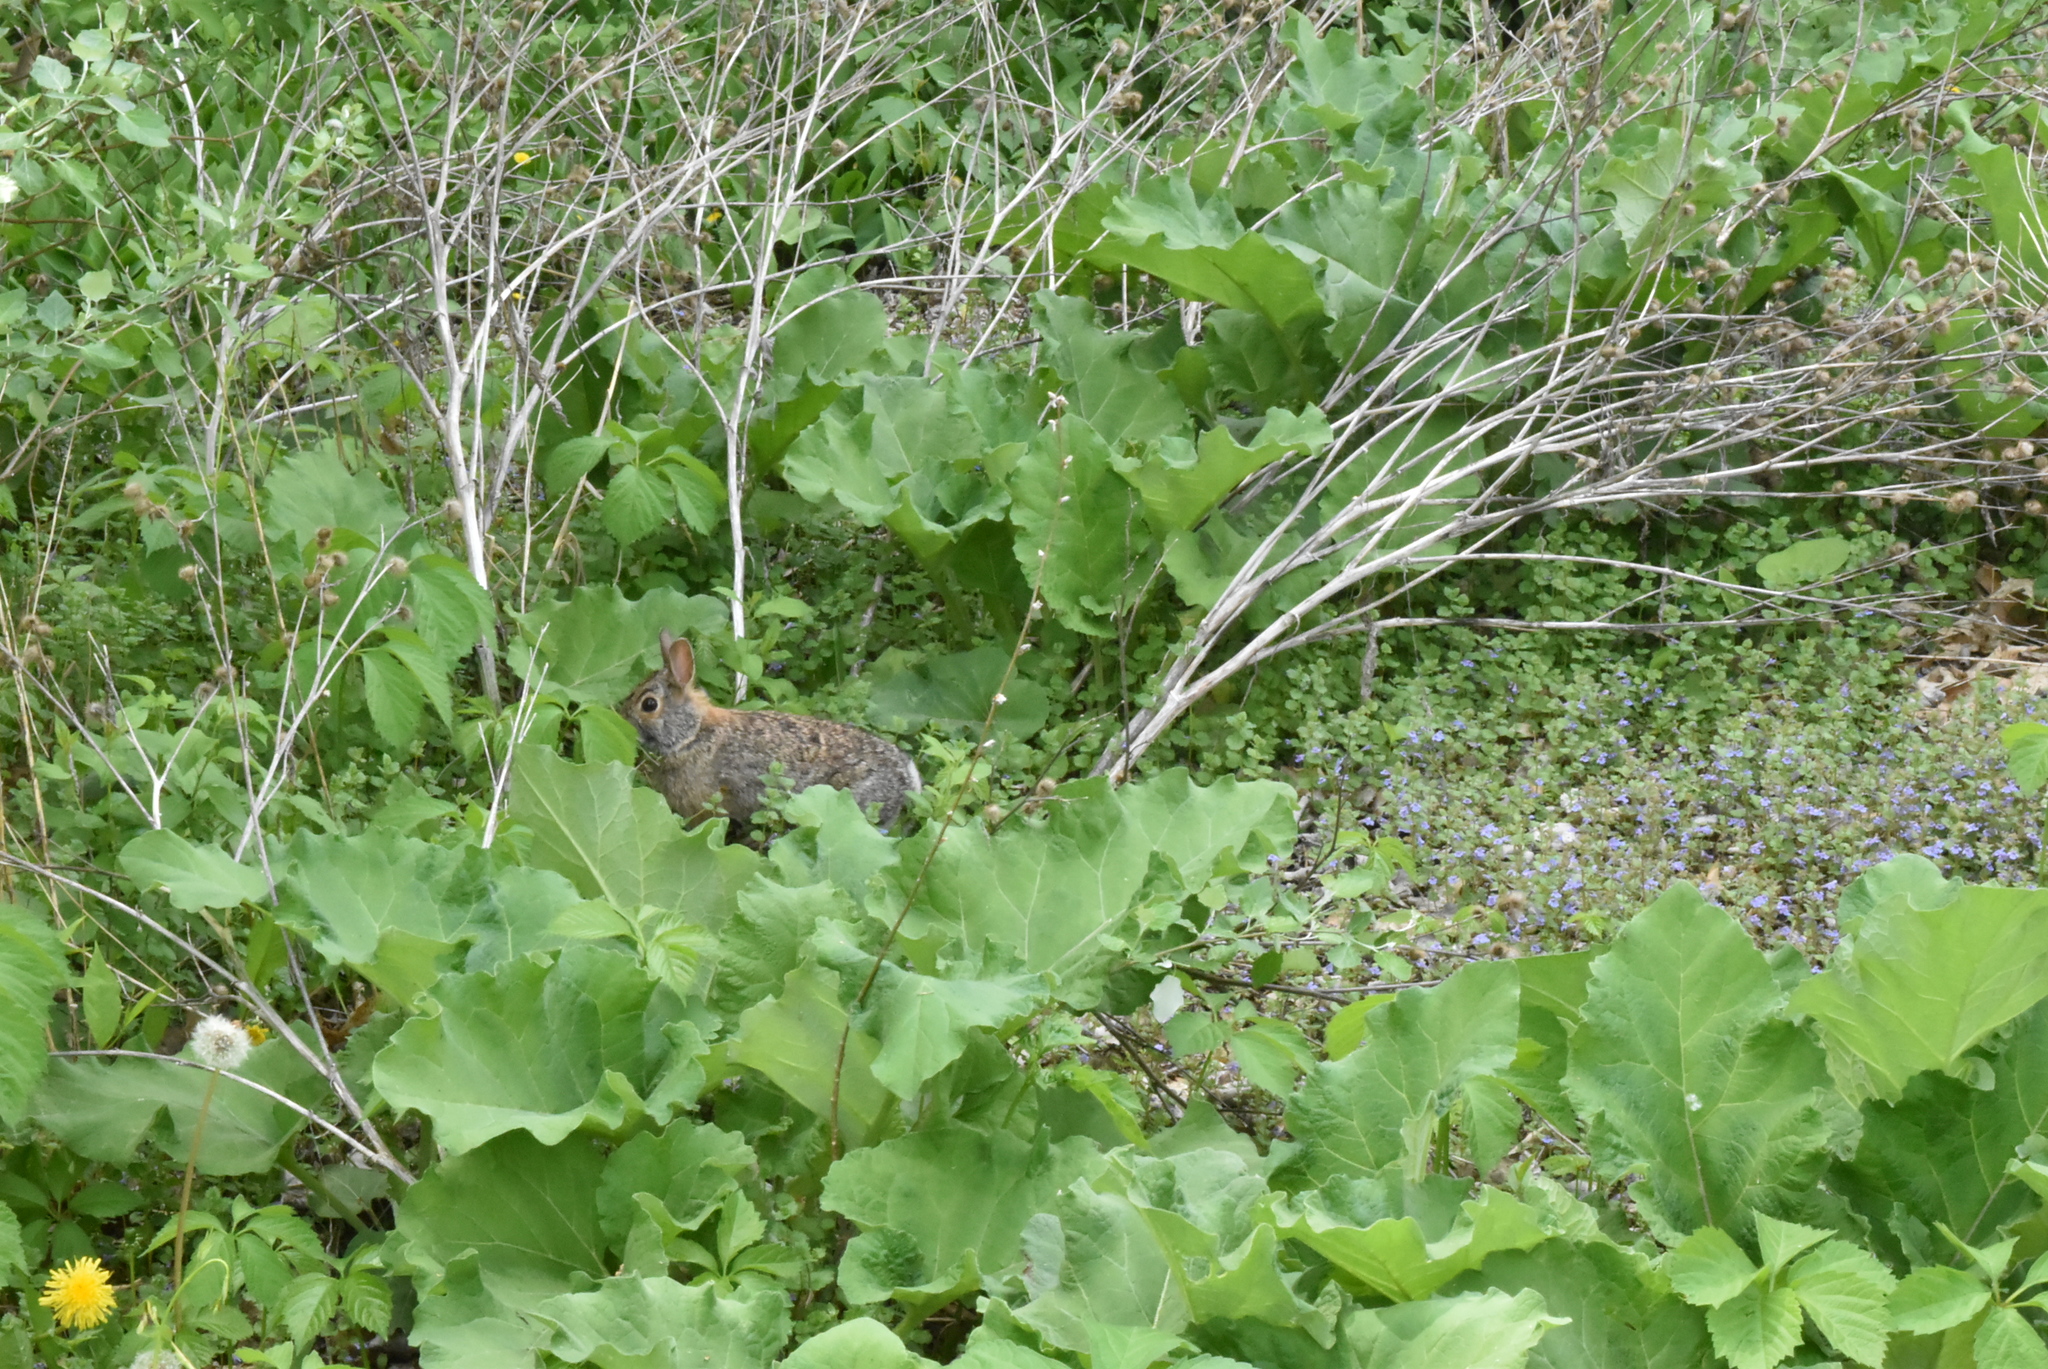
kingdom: Animalia
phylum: Chordata
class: Mammalia
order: Lagomorpha
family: Leporidae
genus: Sylvilagus
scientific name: Sylvilagus floridanus
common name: Eastern cottontail
